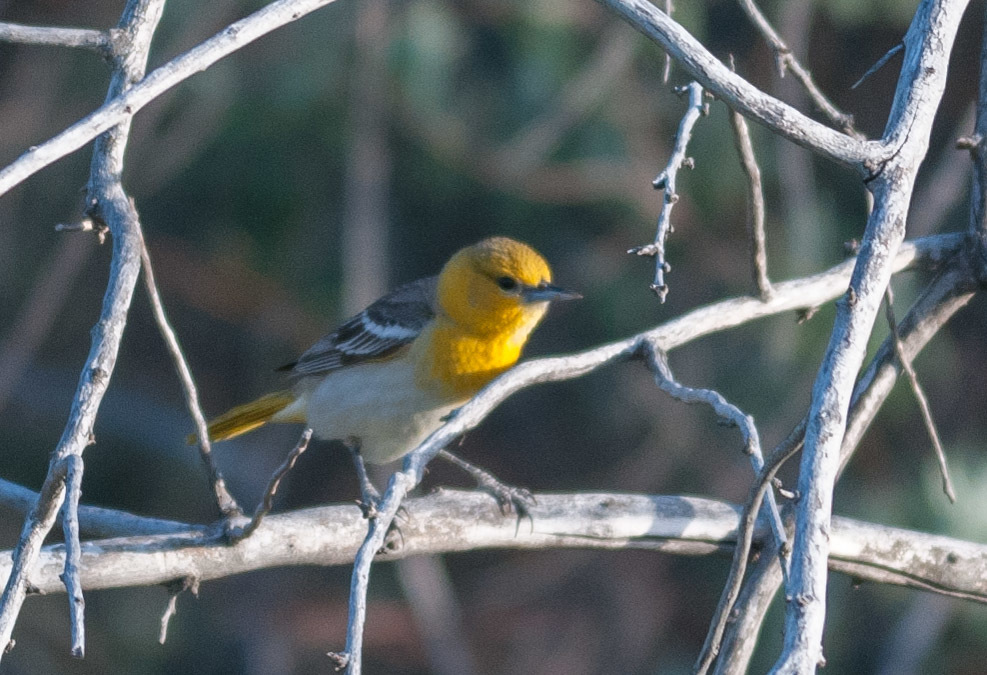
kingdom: Animalia
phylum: Chordata
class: Aves
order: Passeriformes
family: Icteridae
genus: Icterus
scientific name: Icterus bullockii
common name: Bullock's oriole
